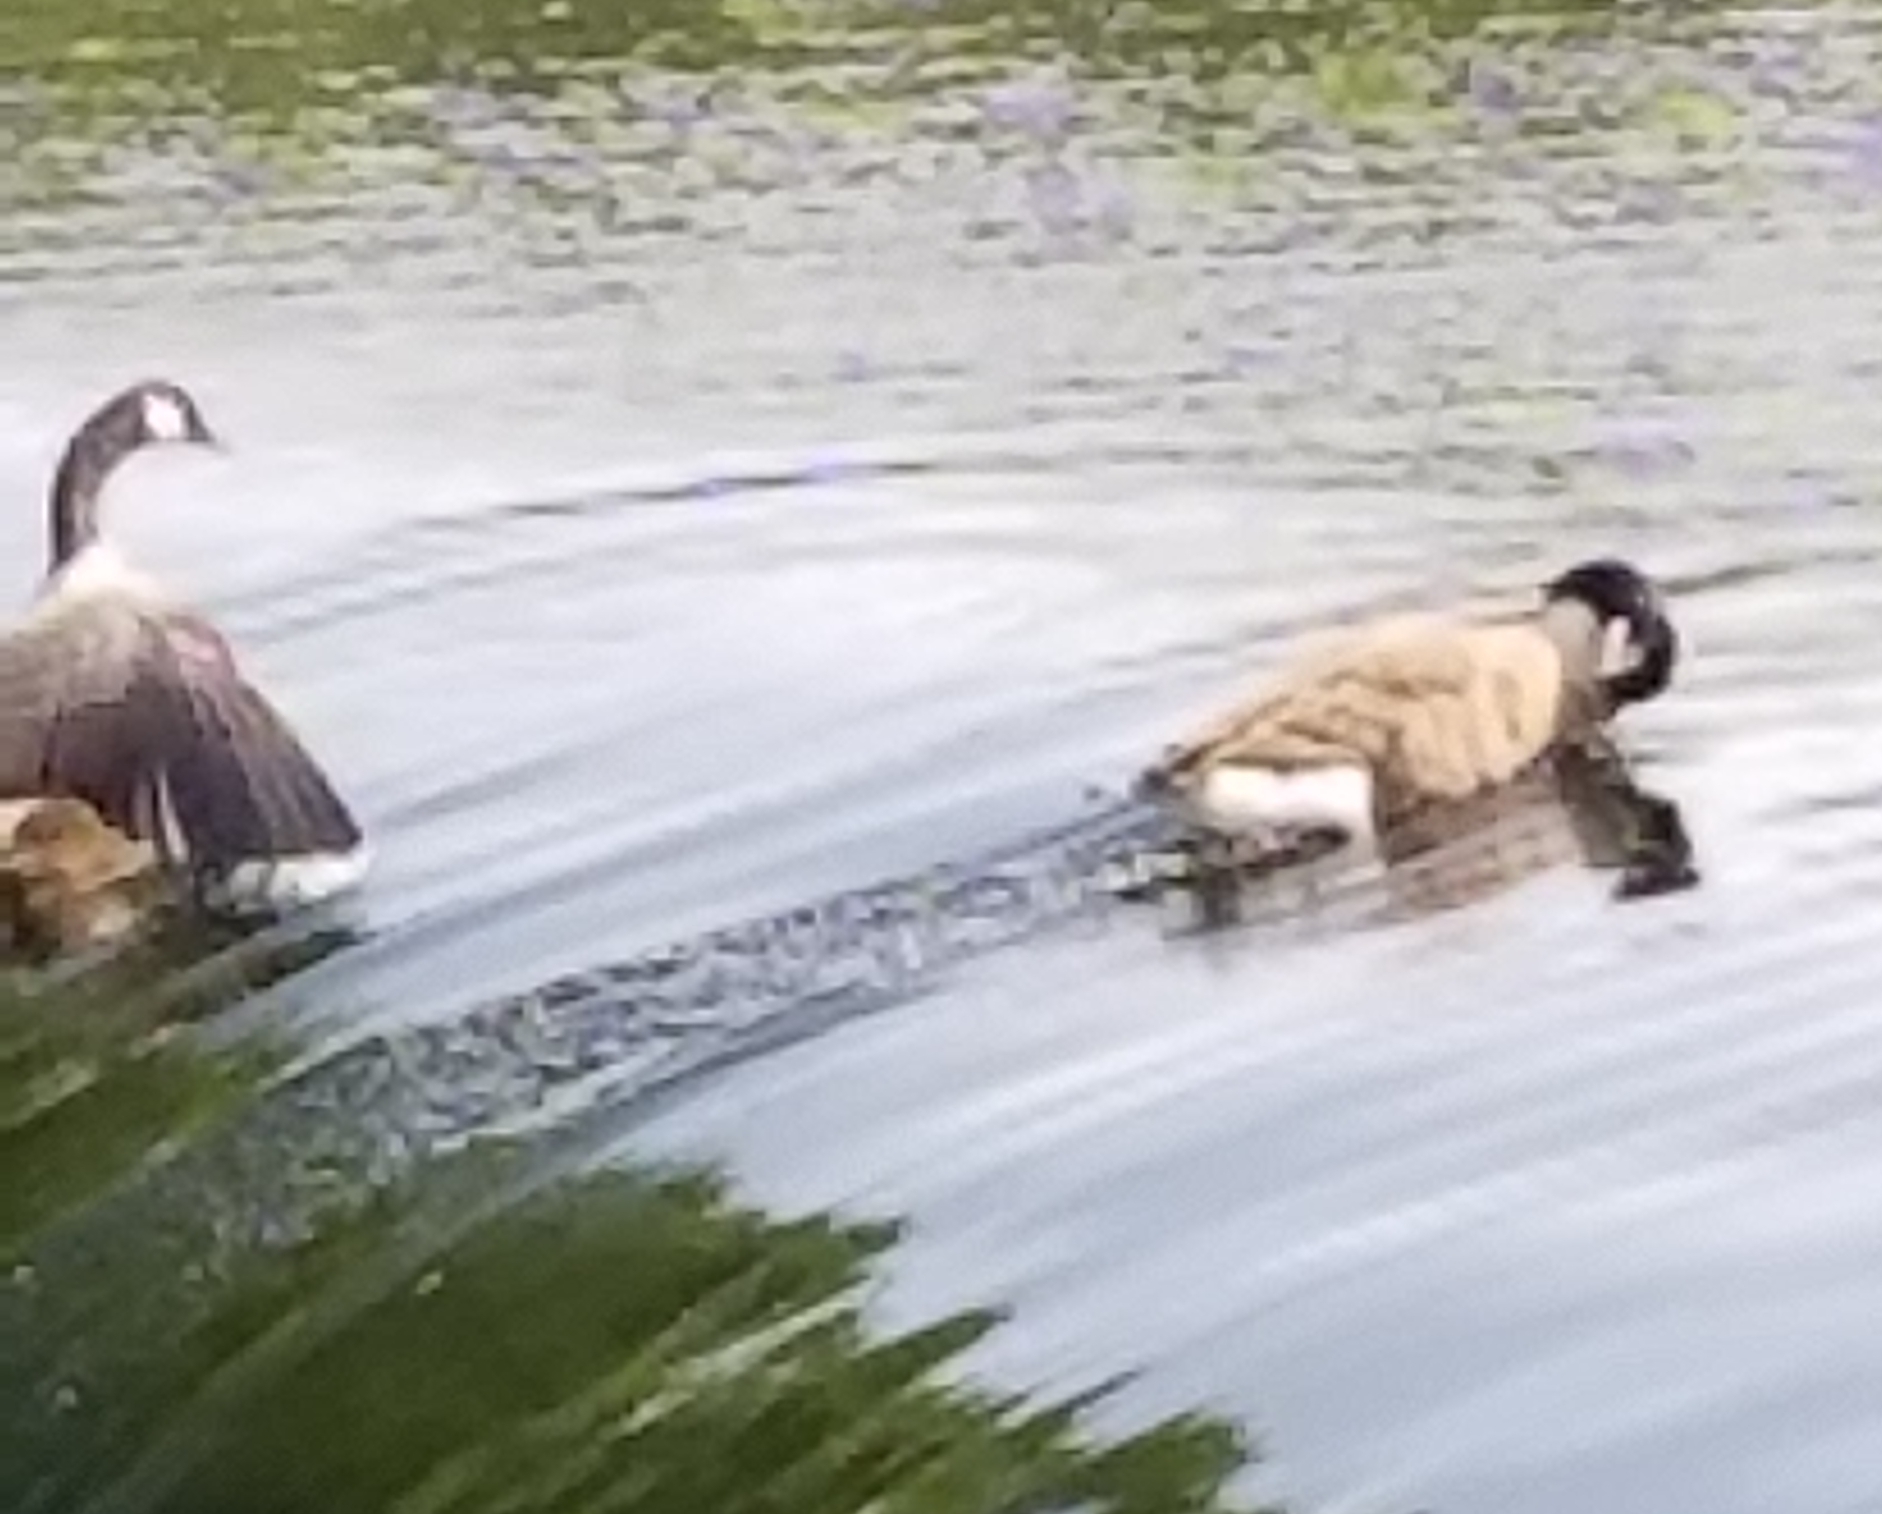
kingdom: Animalia
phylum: Chordata
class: Aves
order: Anseriformes
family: Anatidae
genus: Branta
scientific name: Branta canadensis
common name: Canada goose
